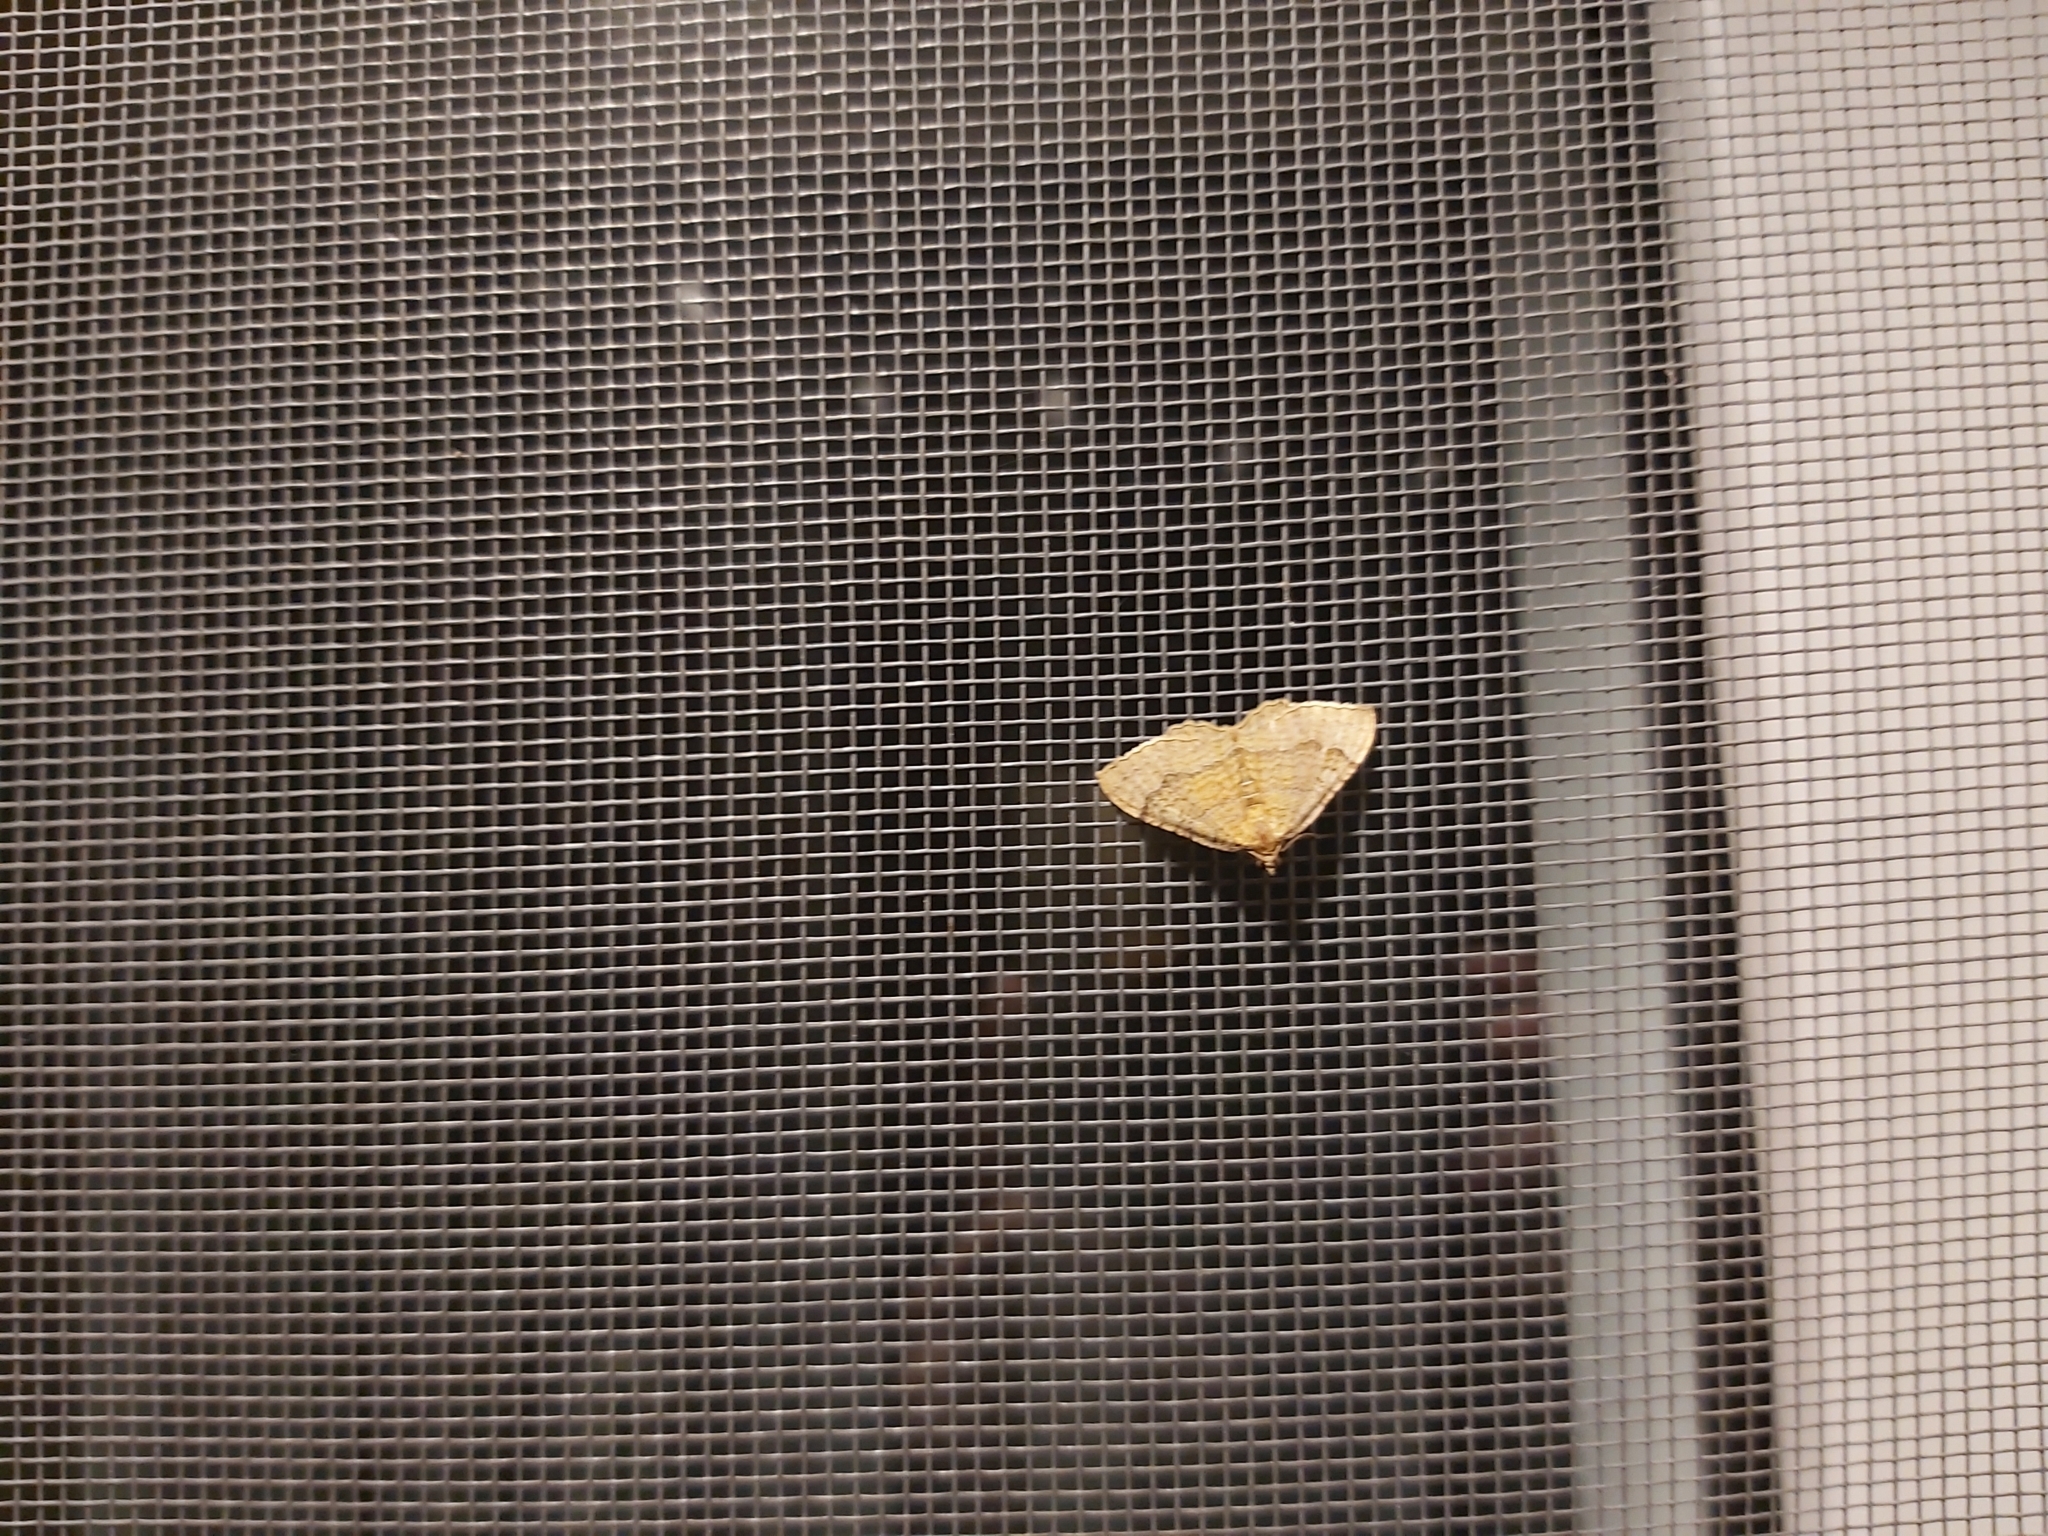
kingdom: Animalia
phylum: Arthropoda
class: Insecta
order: Lepidoptera
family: Geometridae
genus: Camptogramma
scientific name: Camptogramma bilineata
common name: Yellow shell
